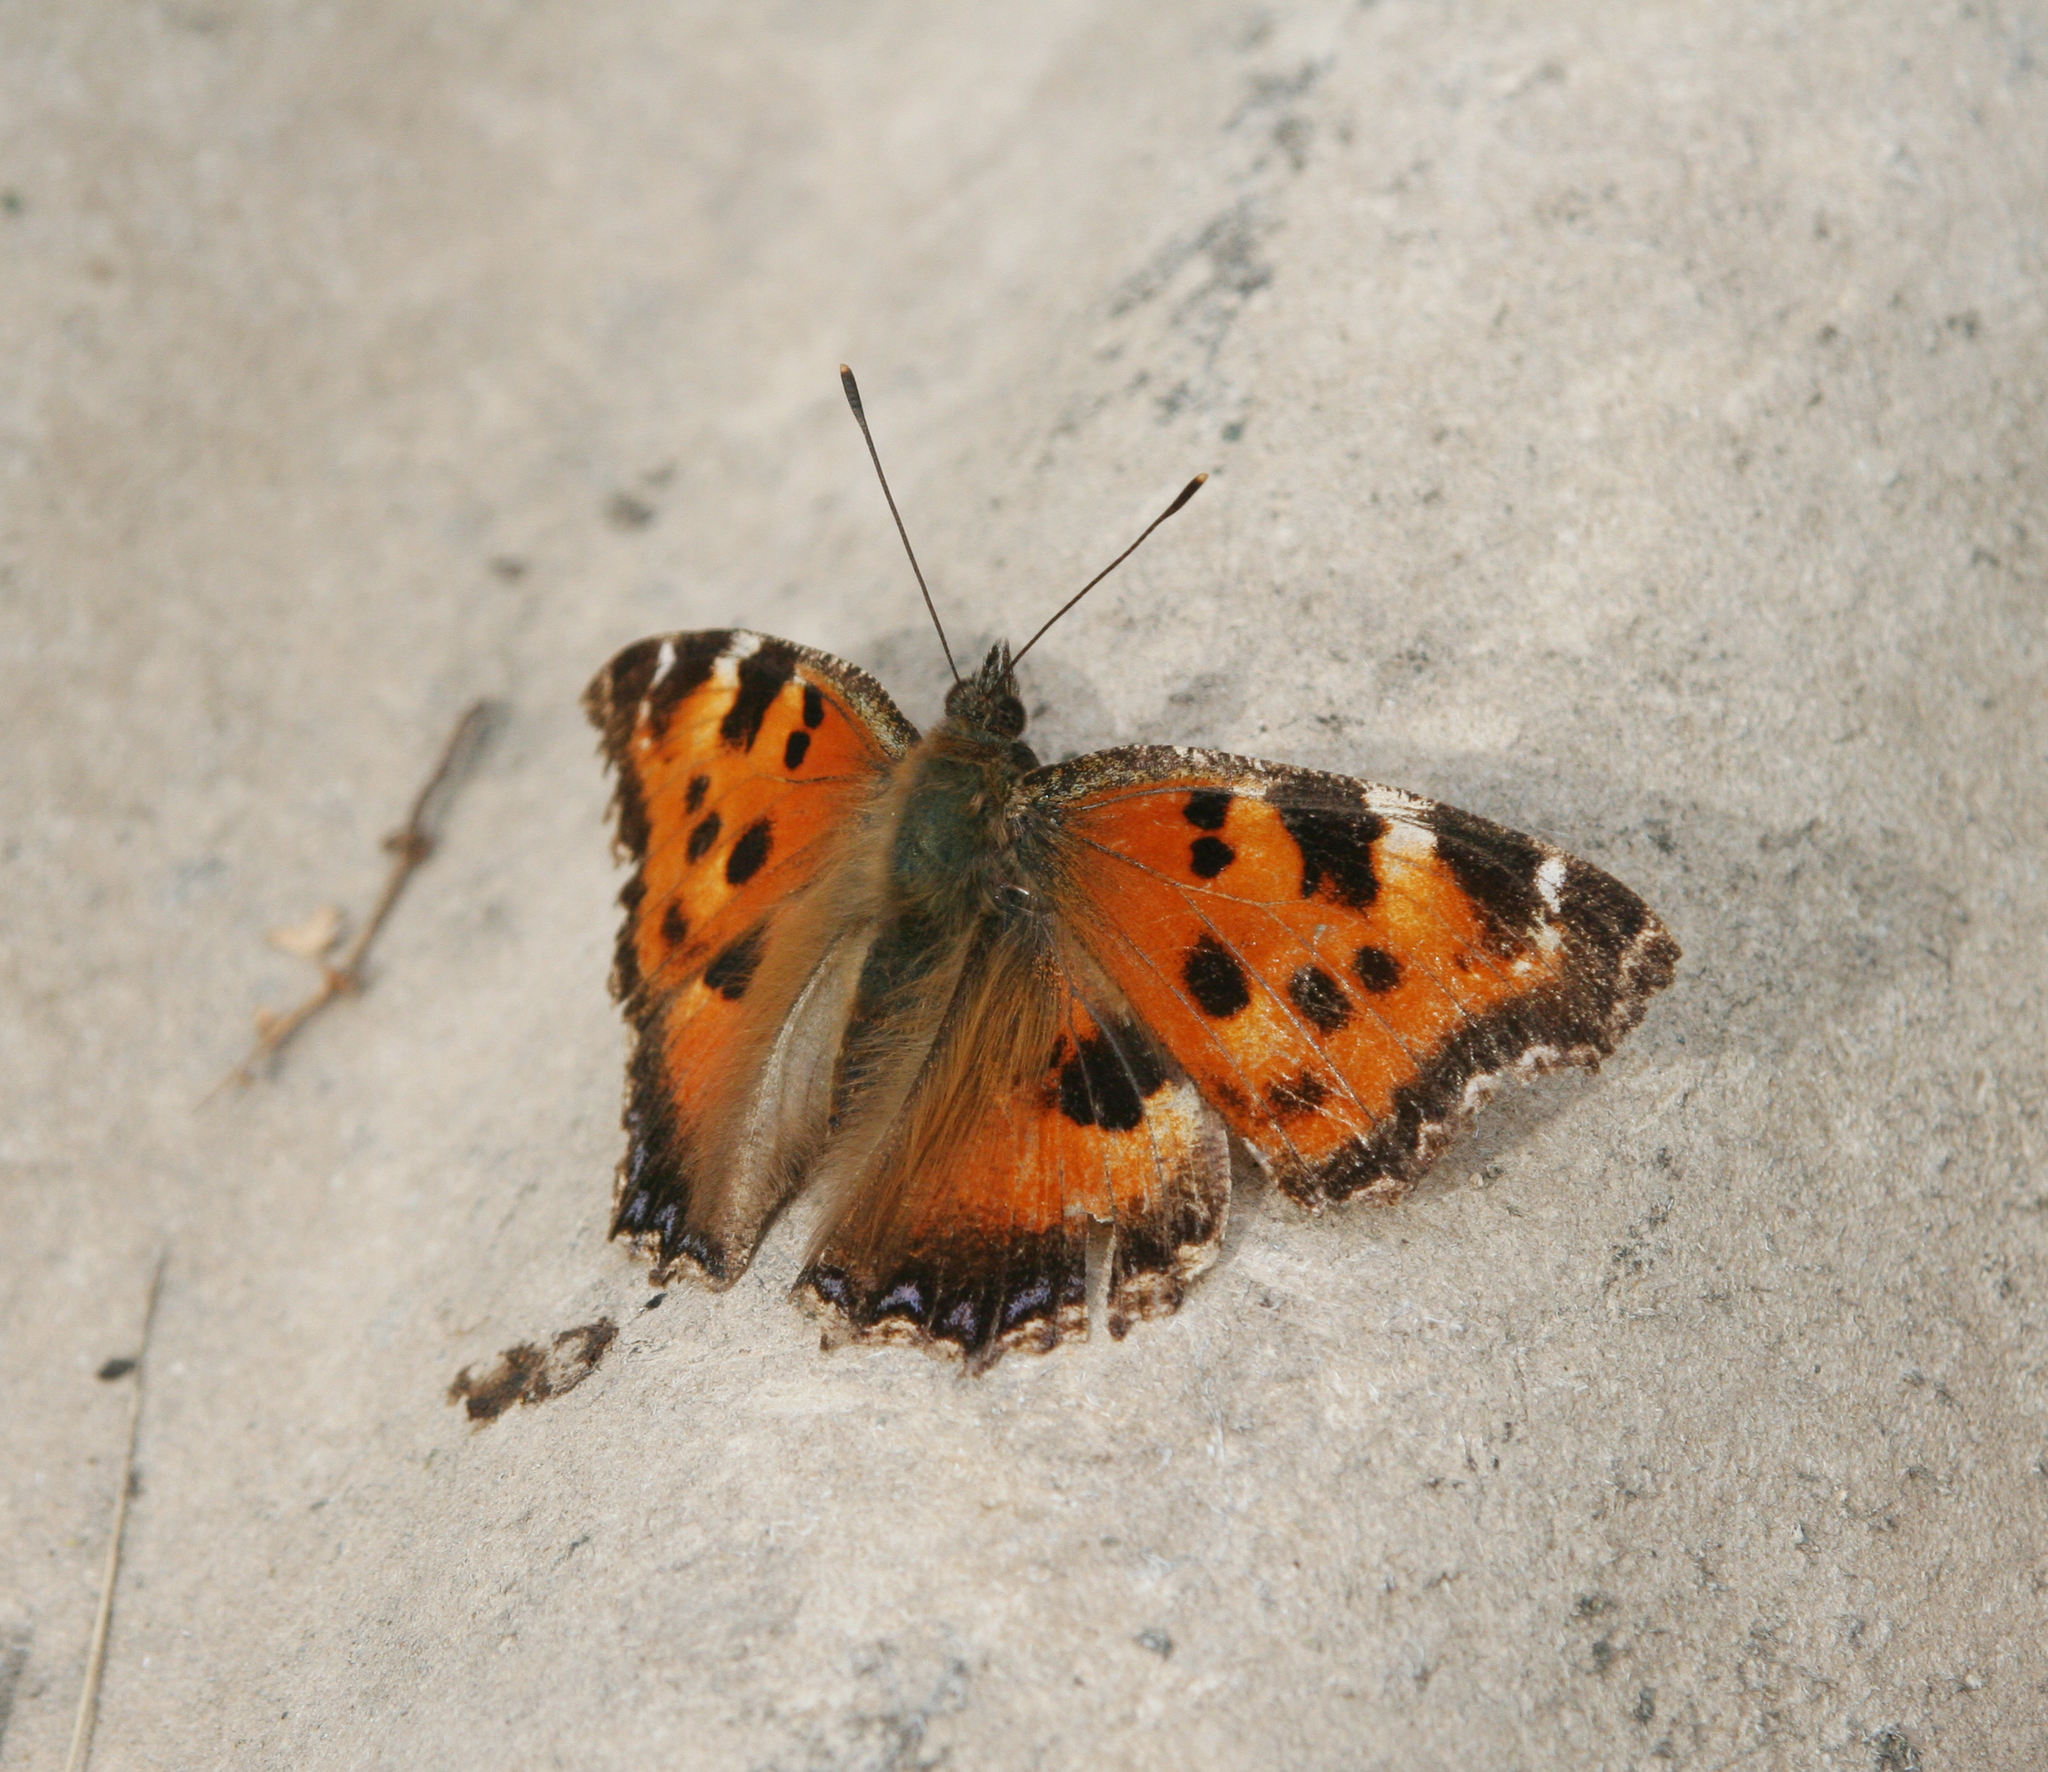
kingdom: Animalia
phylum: Arthropoda
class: Insecta
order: Lepidoptera
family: Nymphalidae
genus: Nymphalis
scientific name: Nymphalis xanthomelas
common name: Scarce tortoiseshell
